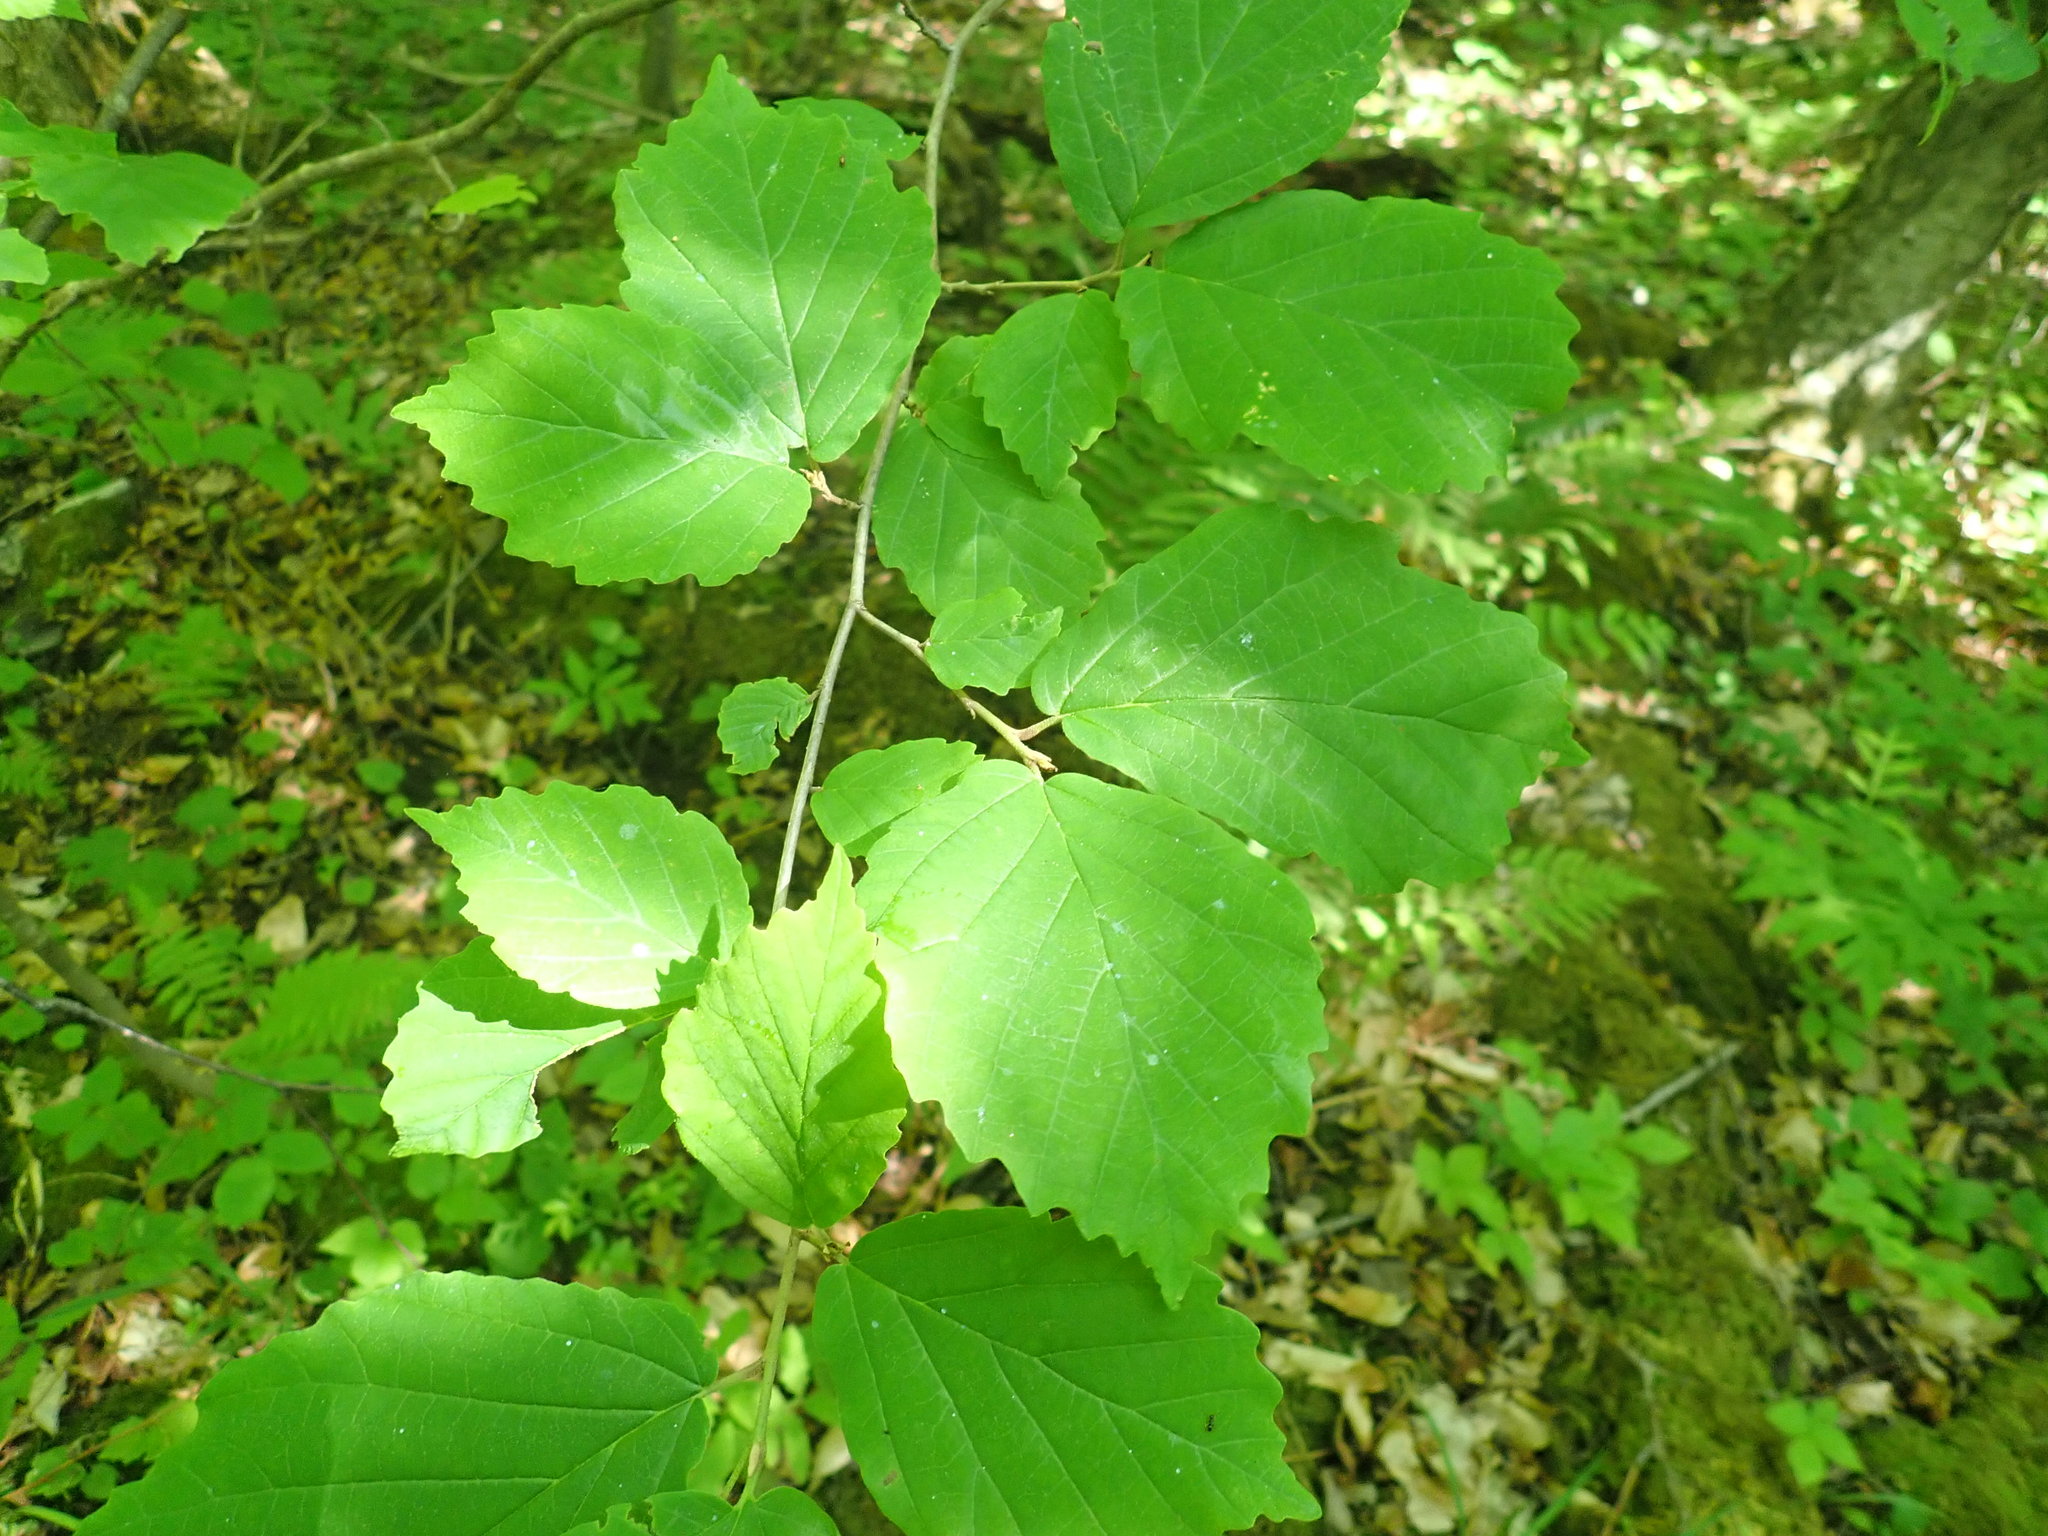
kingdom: Plantae
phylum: Tracheophyta
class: Magnoliopsida
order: Saxifragales
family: Hamamelidaceae
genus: Hamamelis
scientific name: Hamamelis virginiana
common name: Witch-hazel
